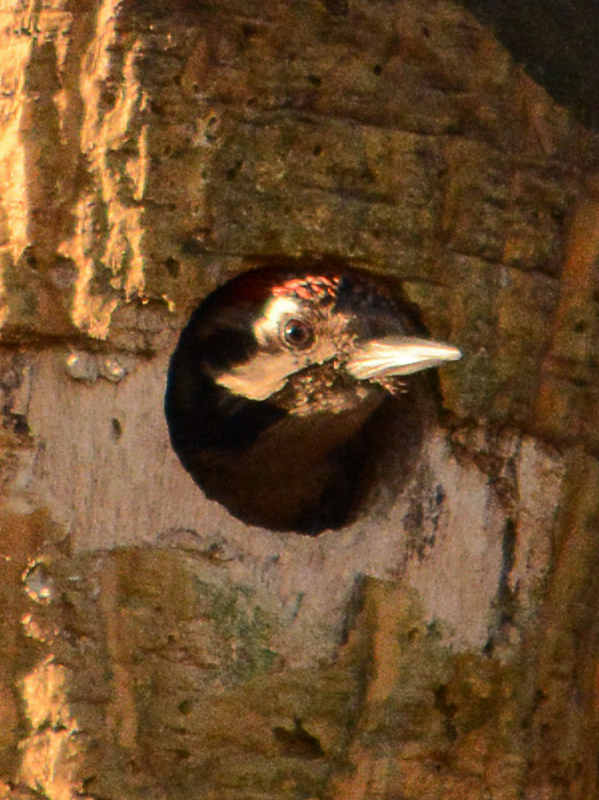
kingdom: Animalia
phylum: Chordata
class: Aves
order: Piciformes
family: Picidae
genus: Dryobates
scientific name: Dryobates scalaris
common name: Ladder-backed woodpecker
